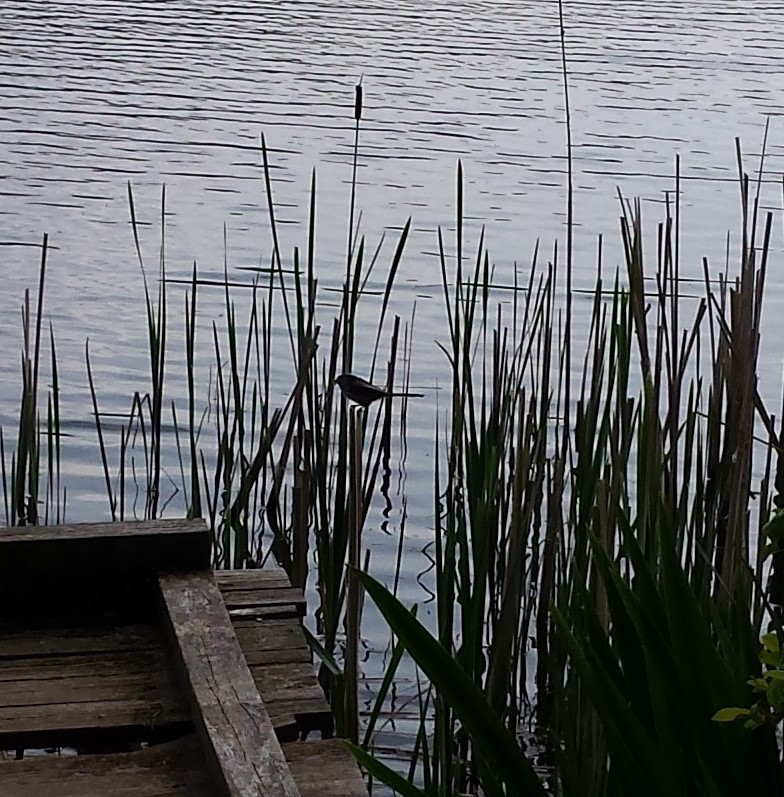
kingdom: Animalia
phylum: Chordata
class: Aves
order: Passeriformes
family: Aegithalidae
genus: Aegithalos
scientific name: Aegithalos caudatus
